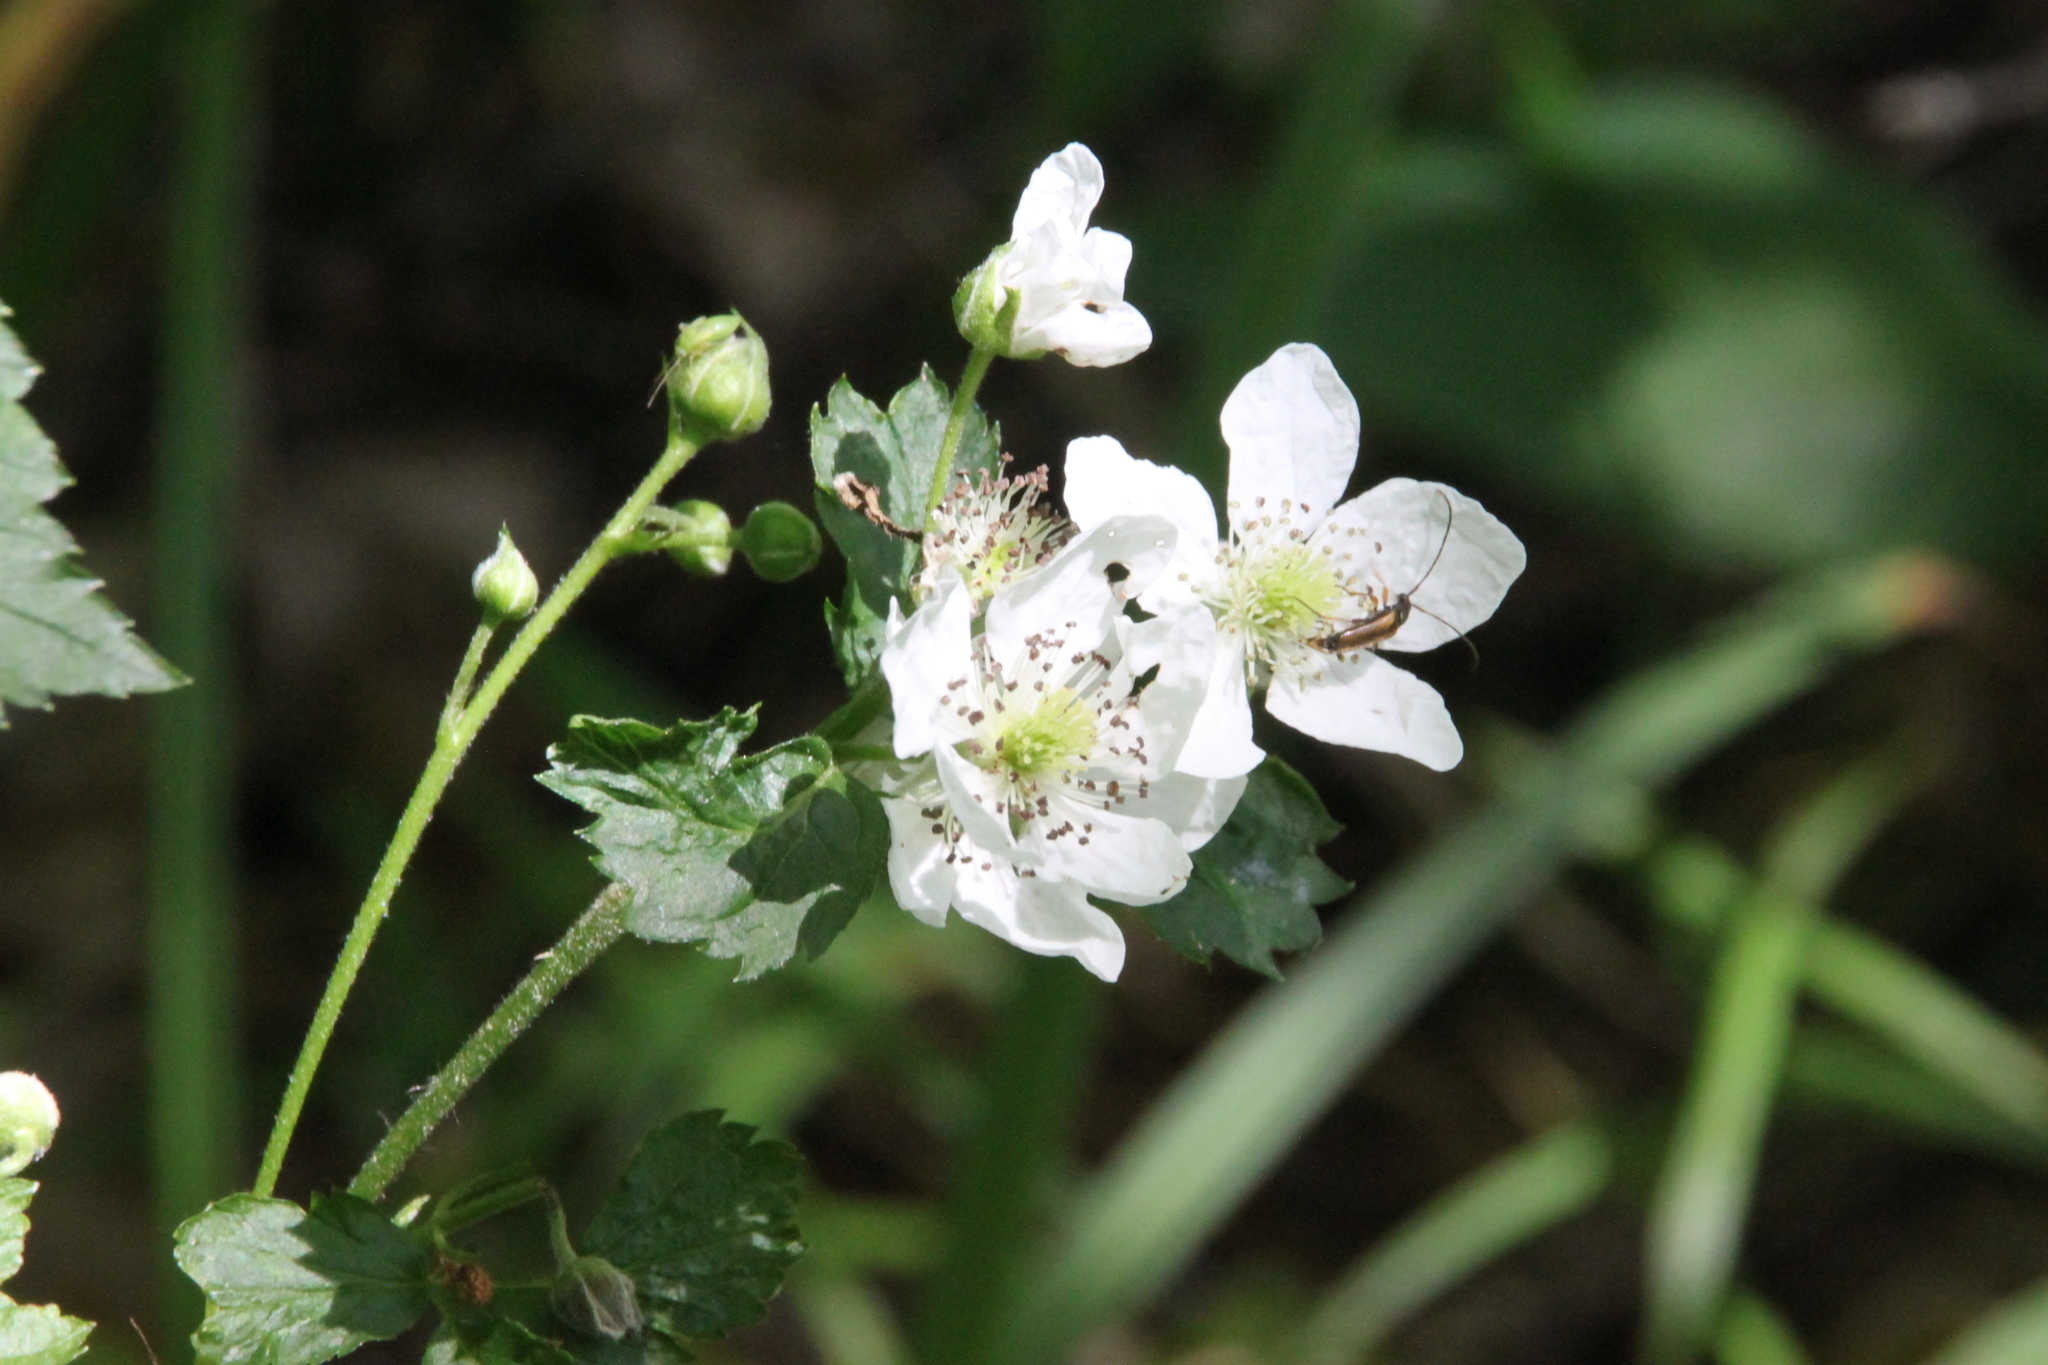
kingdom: Plantae
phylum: Tracheophyta
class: Magnoliopsida
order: Rosales
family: Rosaceae
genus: Rubus
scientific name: Rubus polonicus
